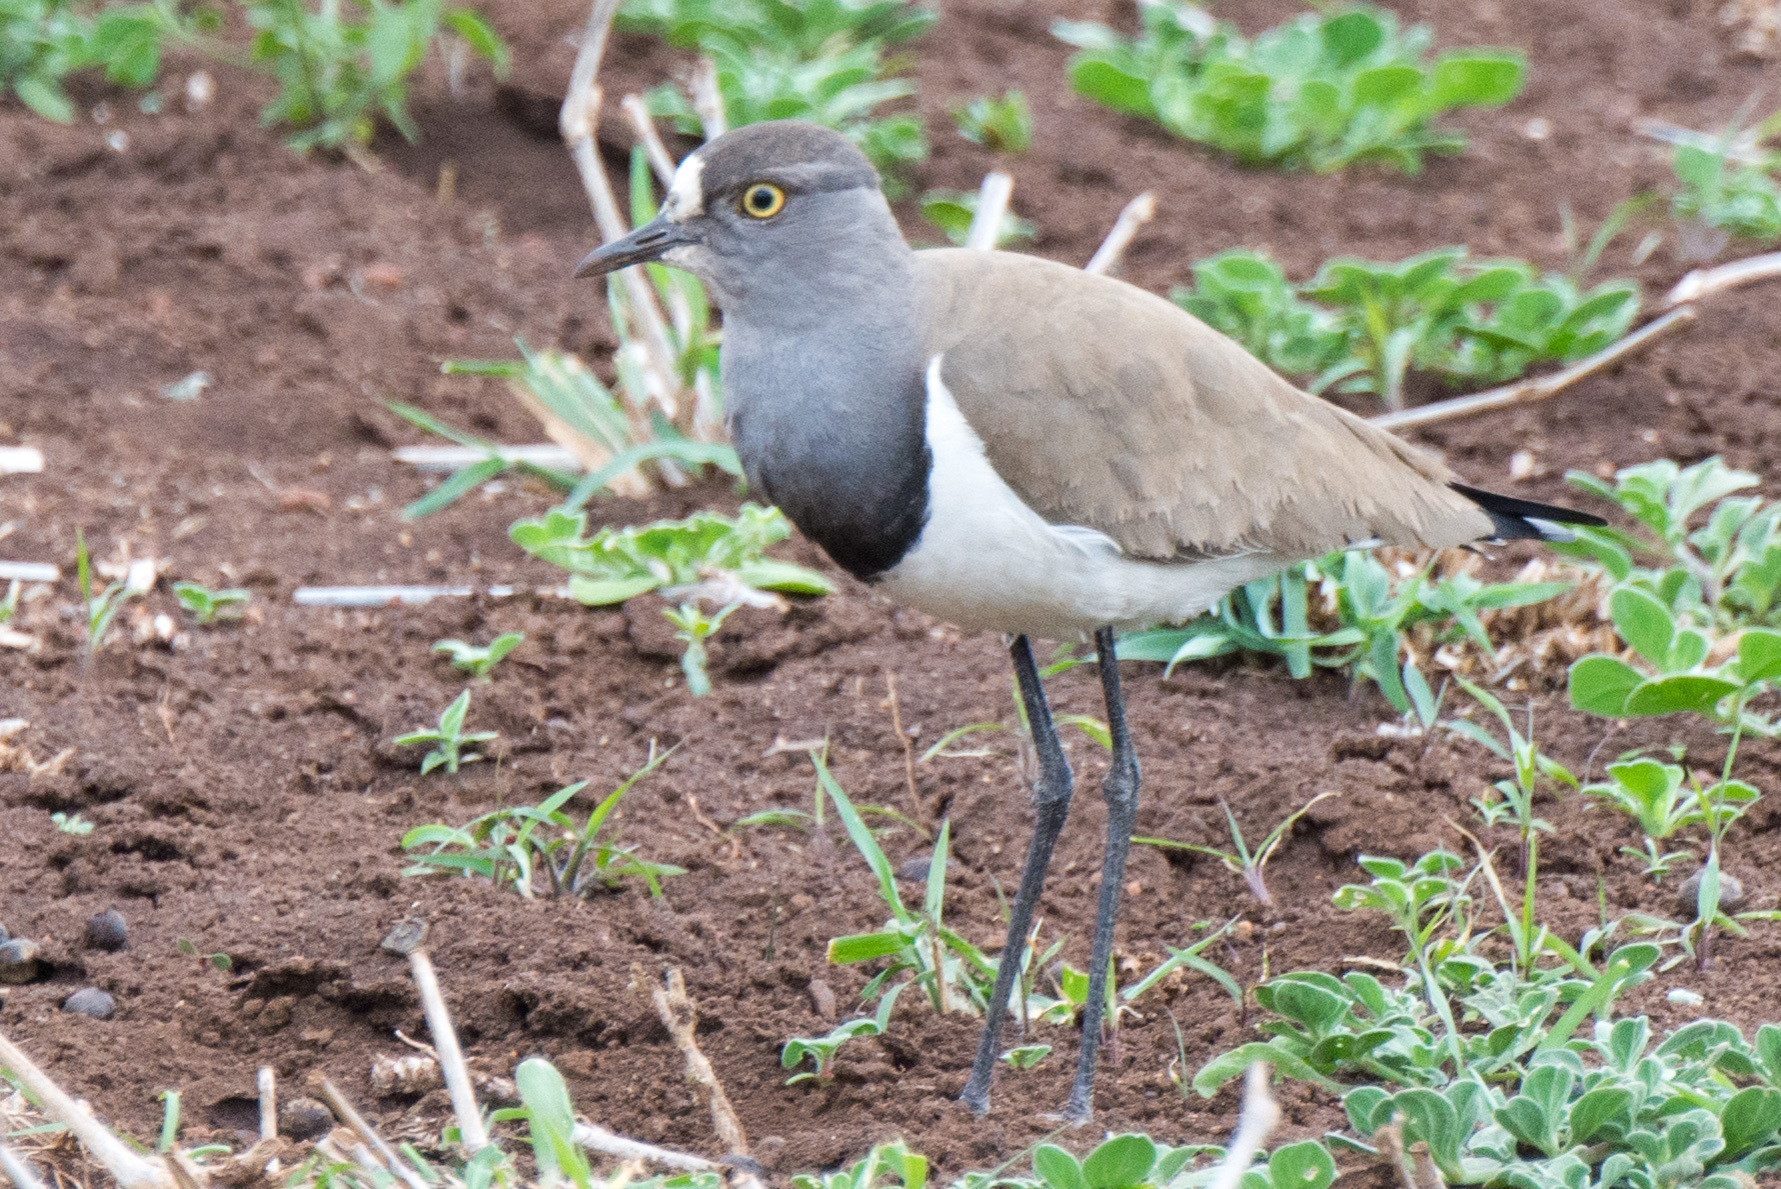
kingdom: Animalia
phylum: Chordata
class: Aves
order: Charadriiformes
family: Charadriidae
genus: Vanellus
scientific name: Vanellus lugubris
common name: Senegal lapwing
